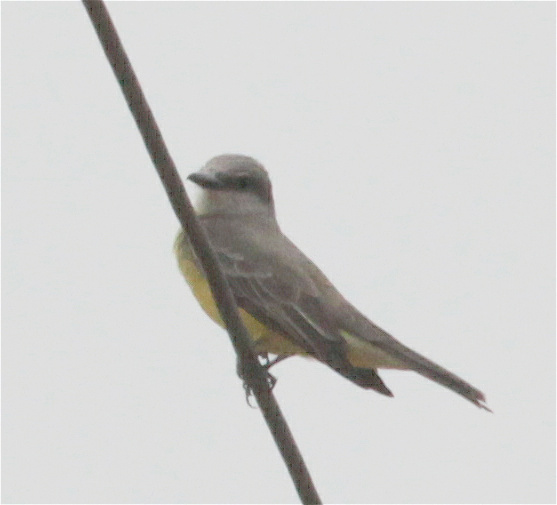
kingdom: Animalia
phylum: Chordata
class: Aves
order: Passeriformes
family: Tyrannidae
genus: Tyrannus
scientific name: Tyrannus melancholicus
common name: Tropical kingbird
